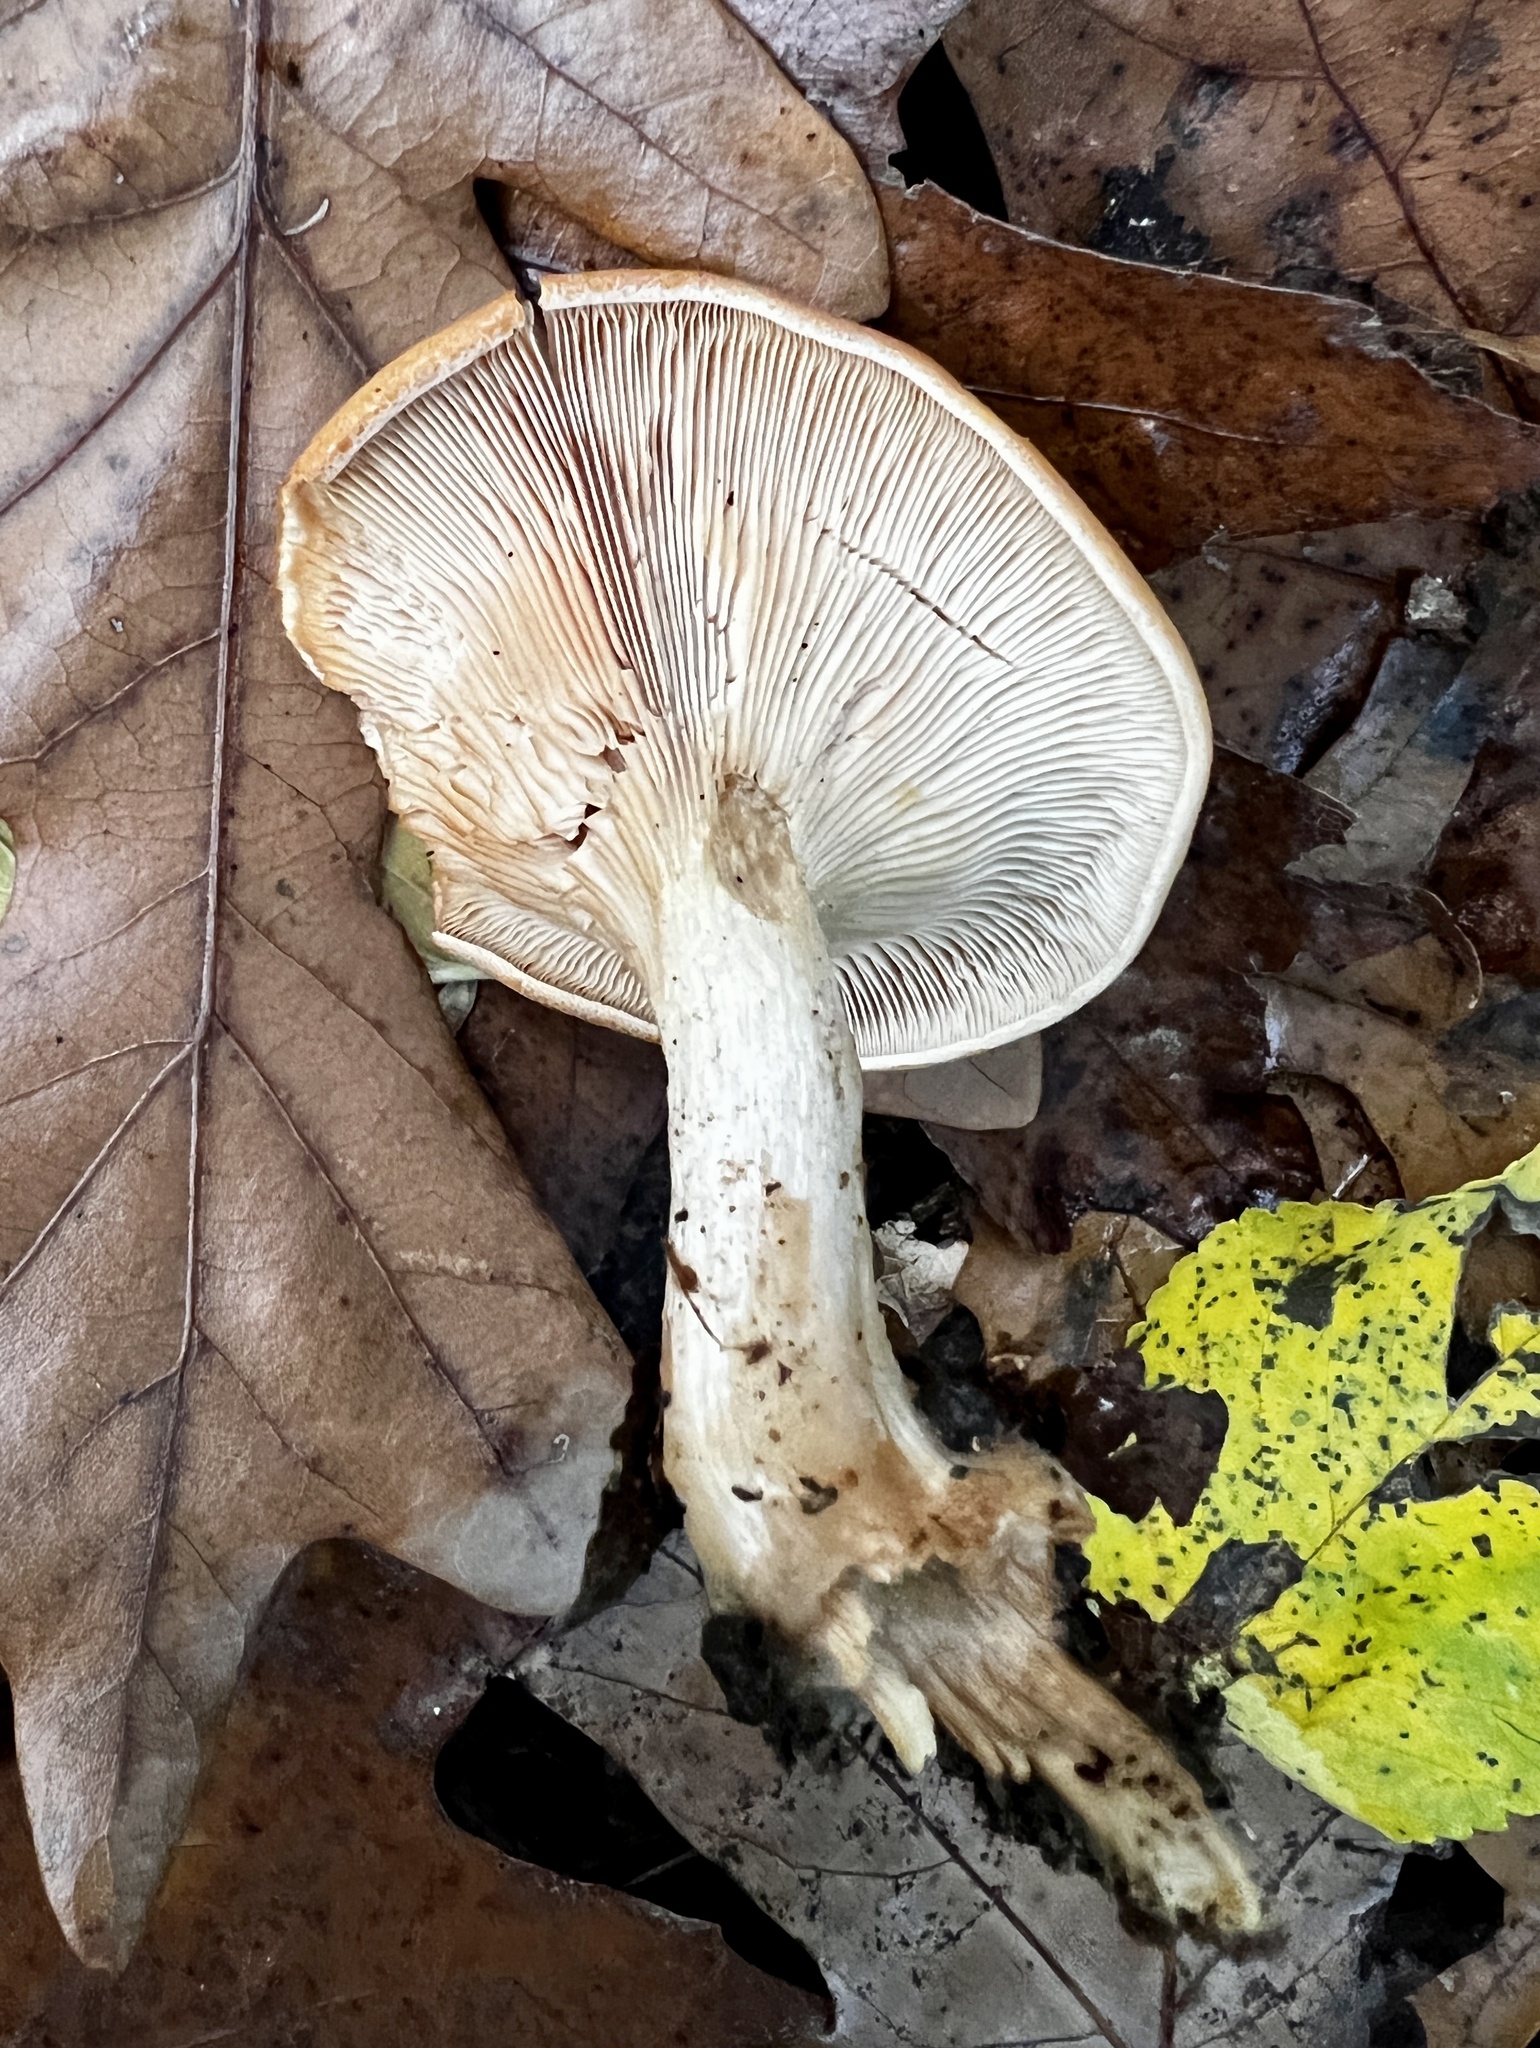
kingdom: Fungi
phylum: Basidiomycota
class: Agaricomycetes
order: Agaricales
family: Tricholomataceae
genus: Paralepista
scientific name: Paralepista flaccida
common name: Tawny funnel cap
